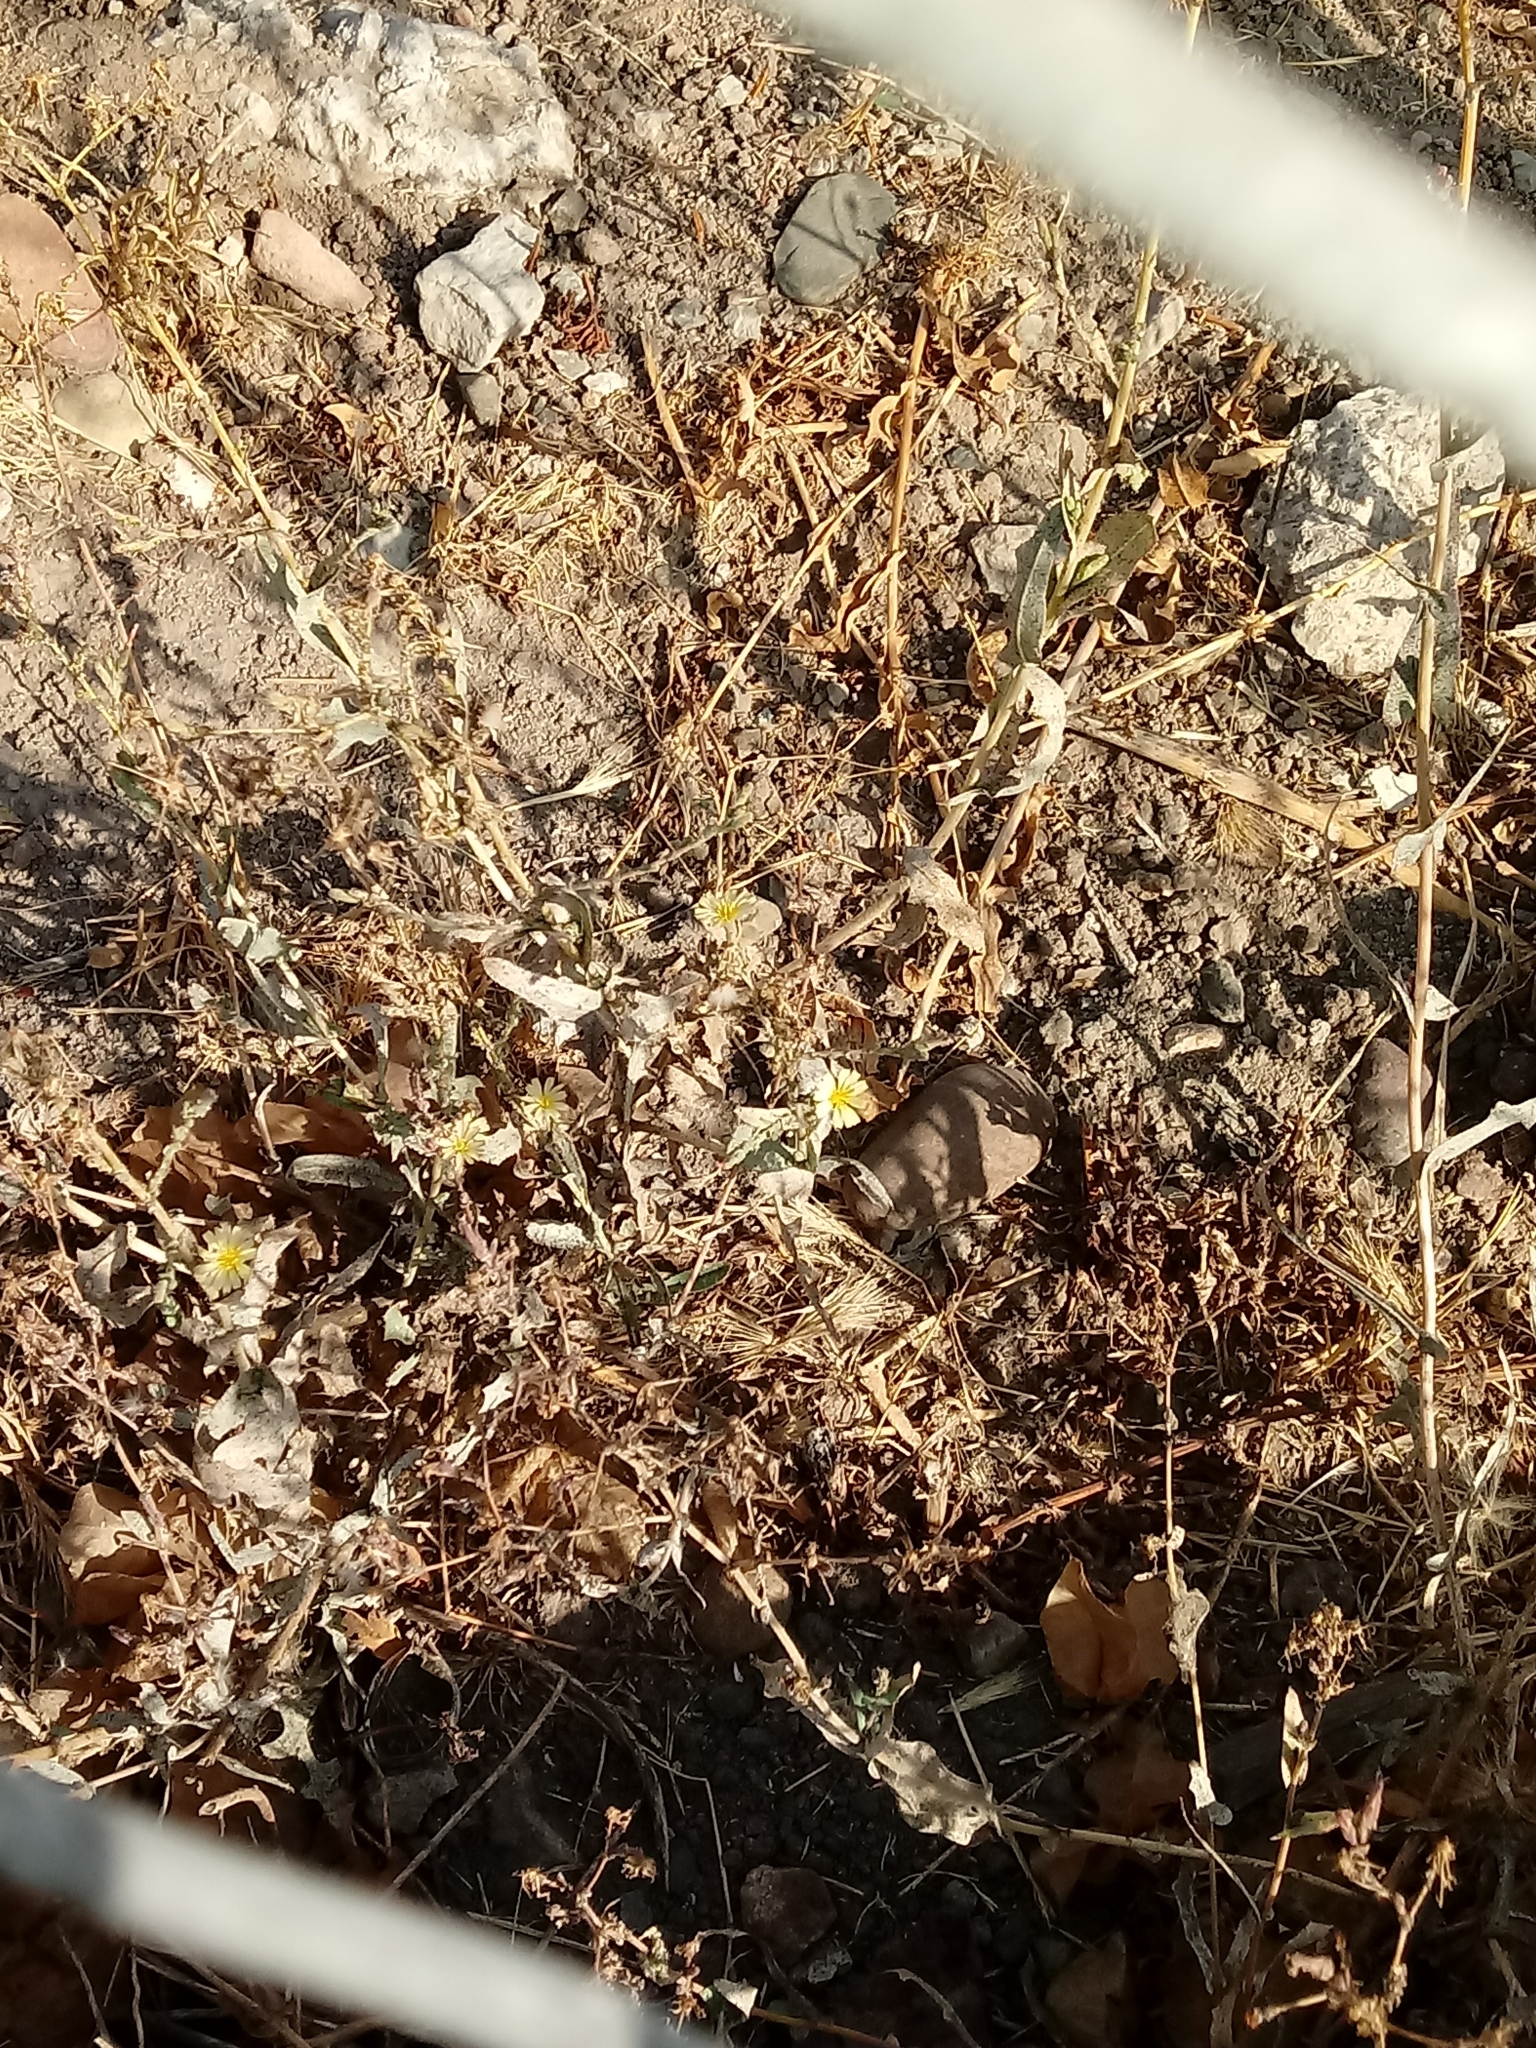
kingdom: Plantae
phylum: Tracheophyta
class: Magnoliopsida
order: Asterales
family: Asteraceae
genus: Lactuca
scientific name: Lactuca serriola
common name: Prickly lettuce
